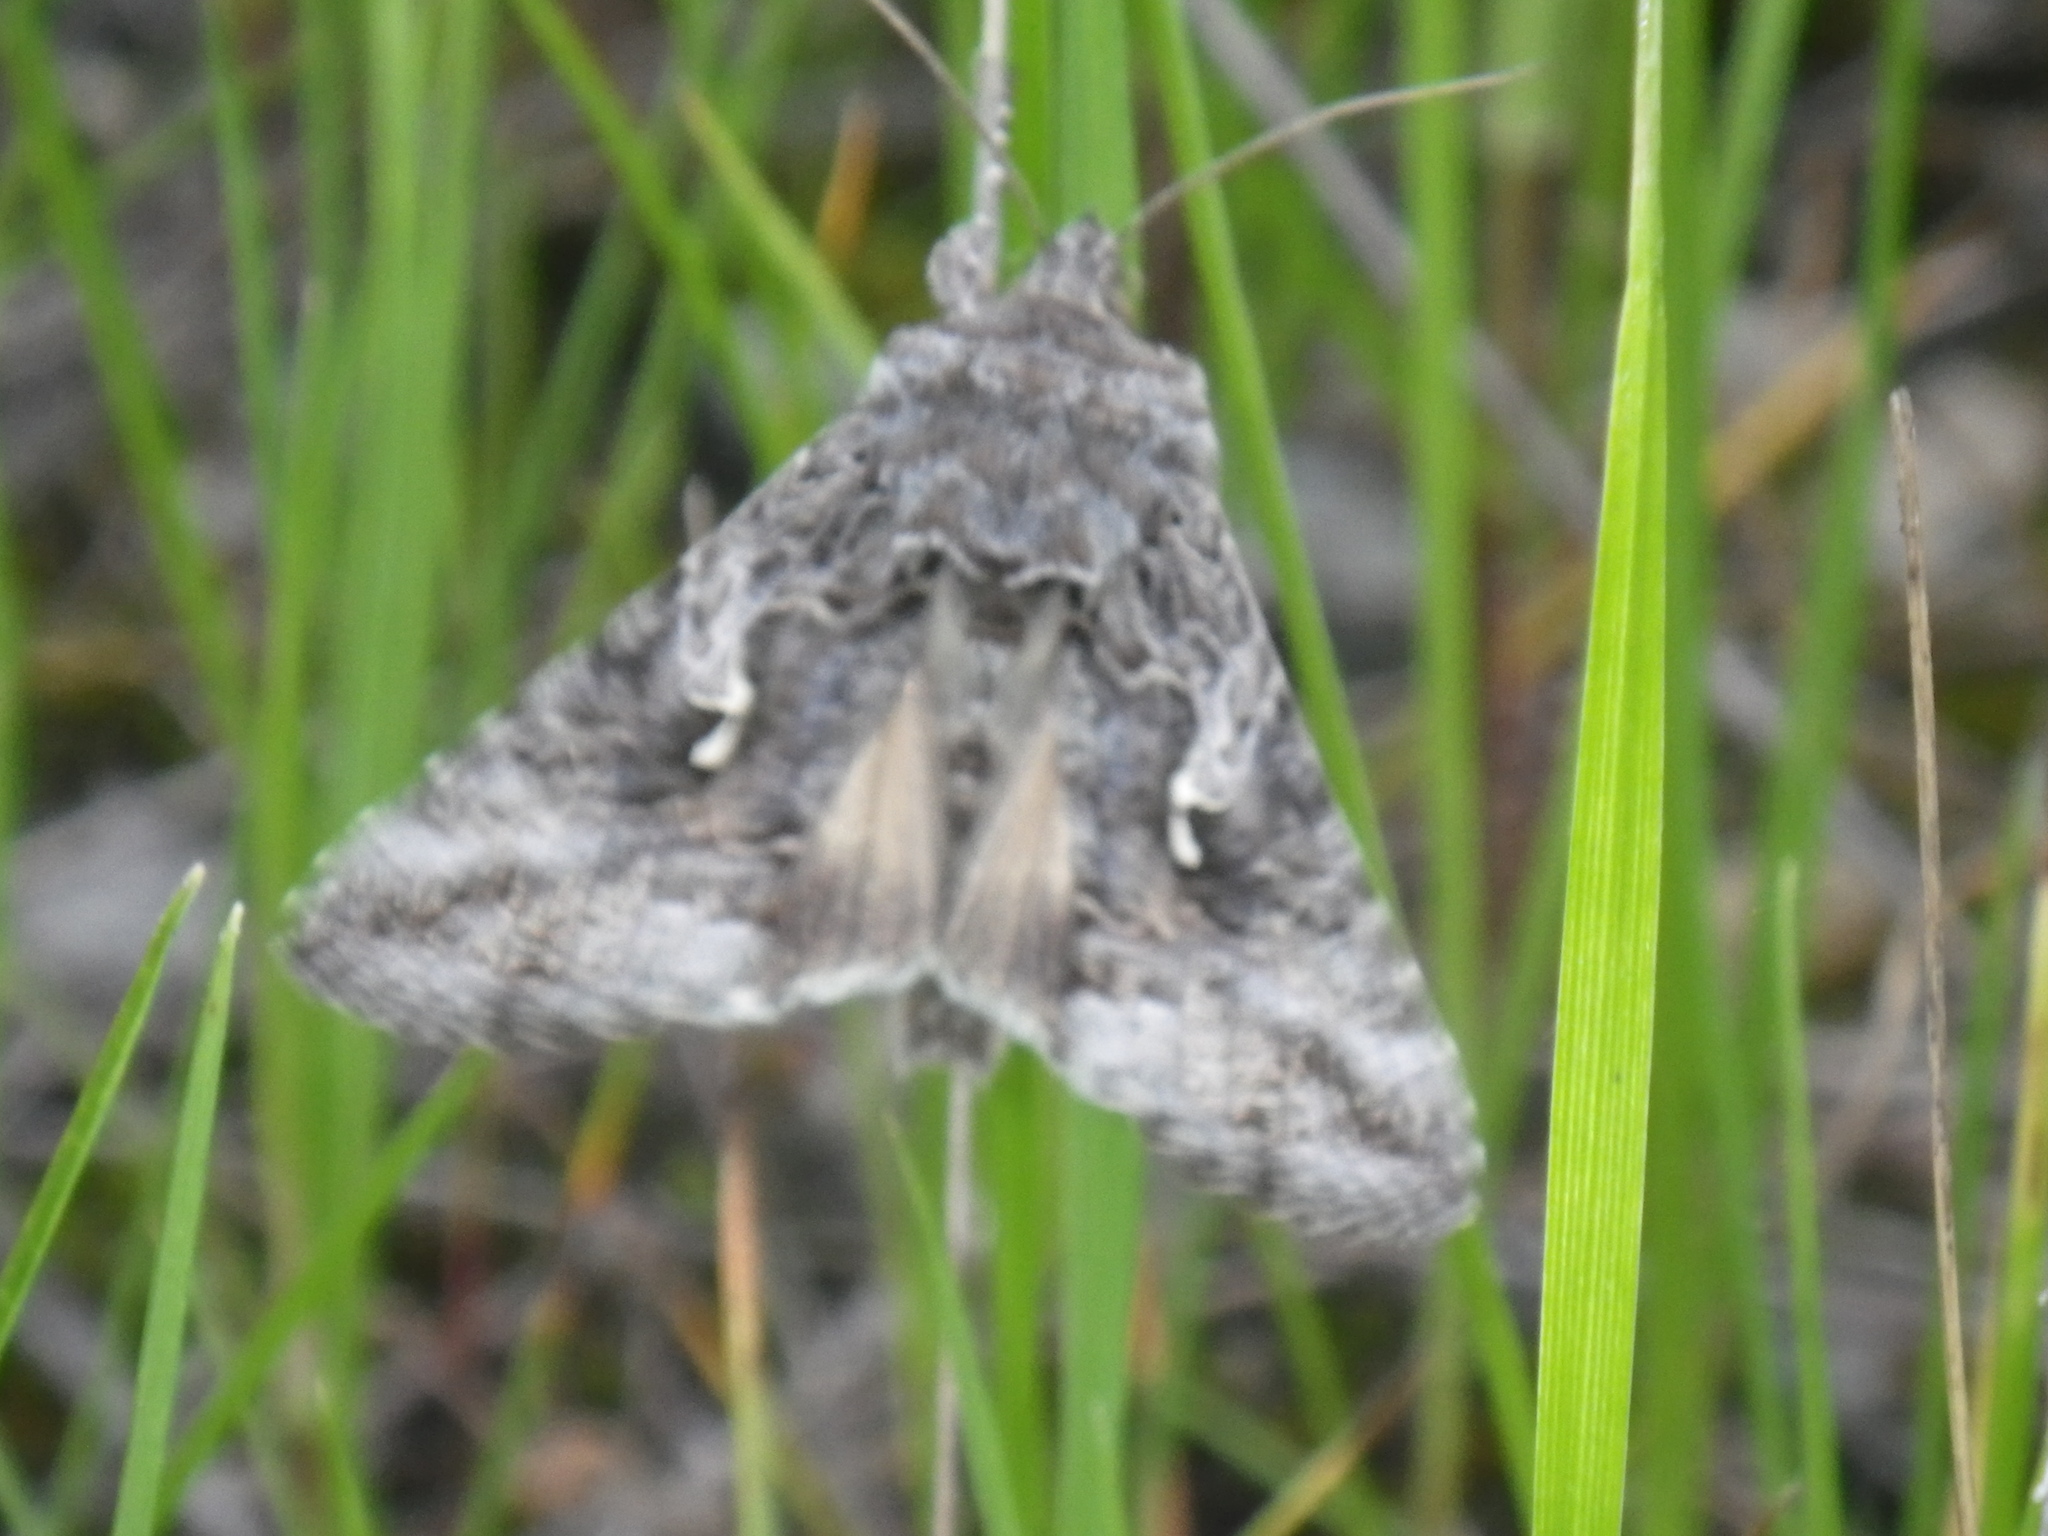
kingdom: Animalia
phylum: Arthropoda
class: Insecta
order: Lepidoptera
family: Noctuidae
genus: Autographa
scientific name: Autographa californica
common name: Alfalfa looper
